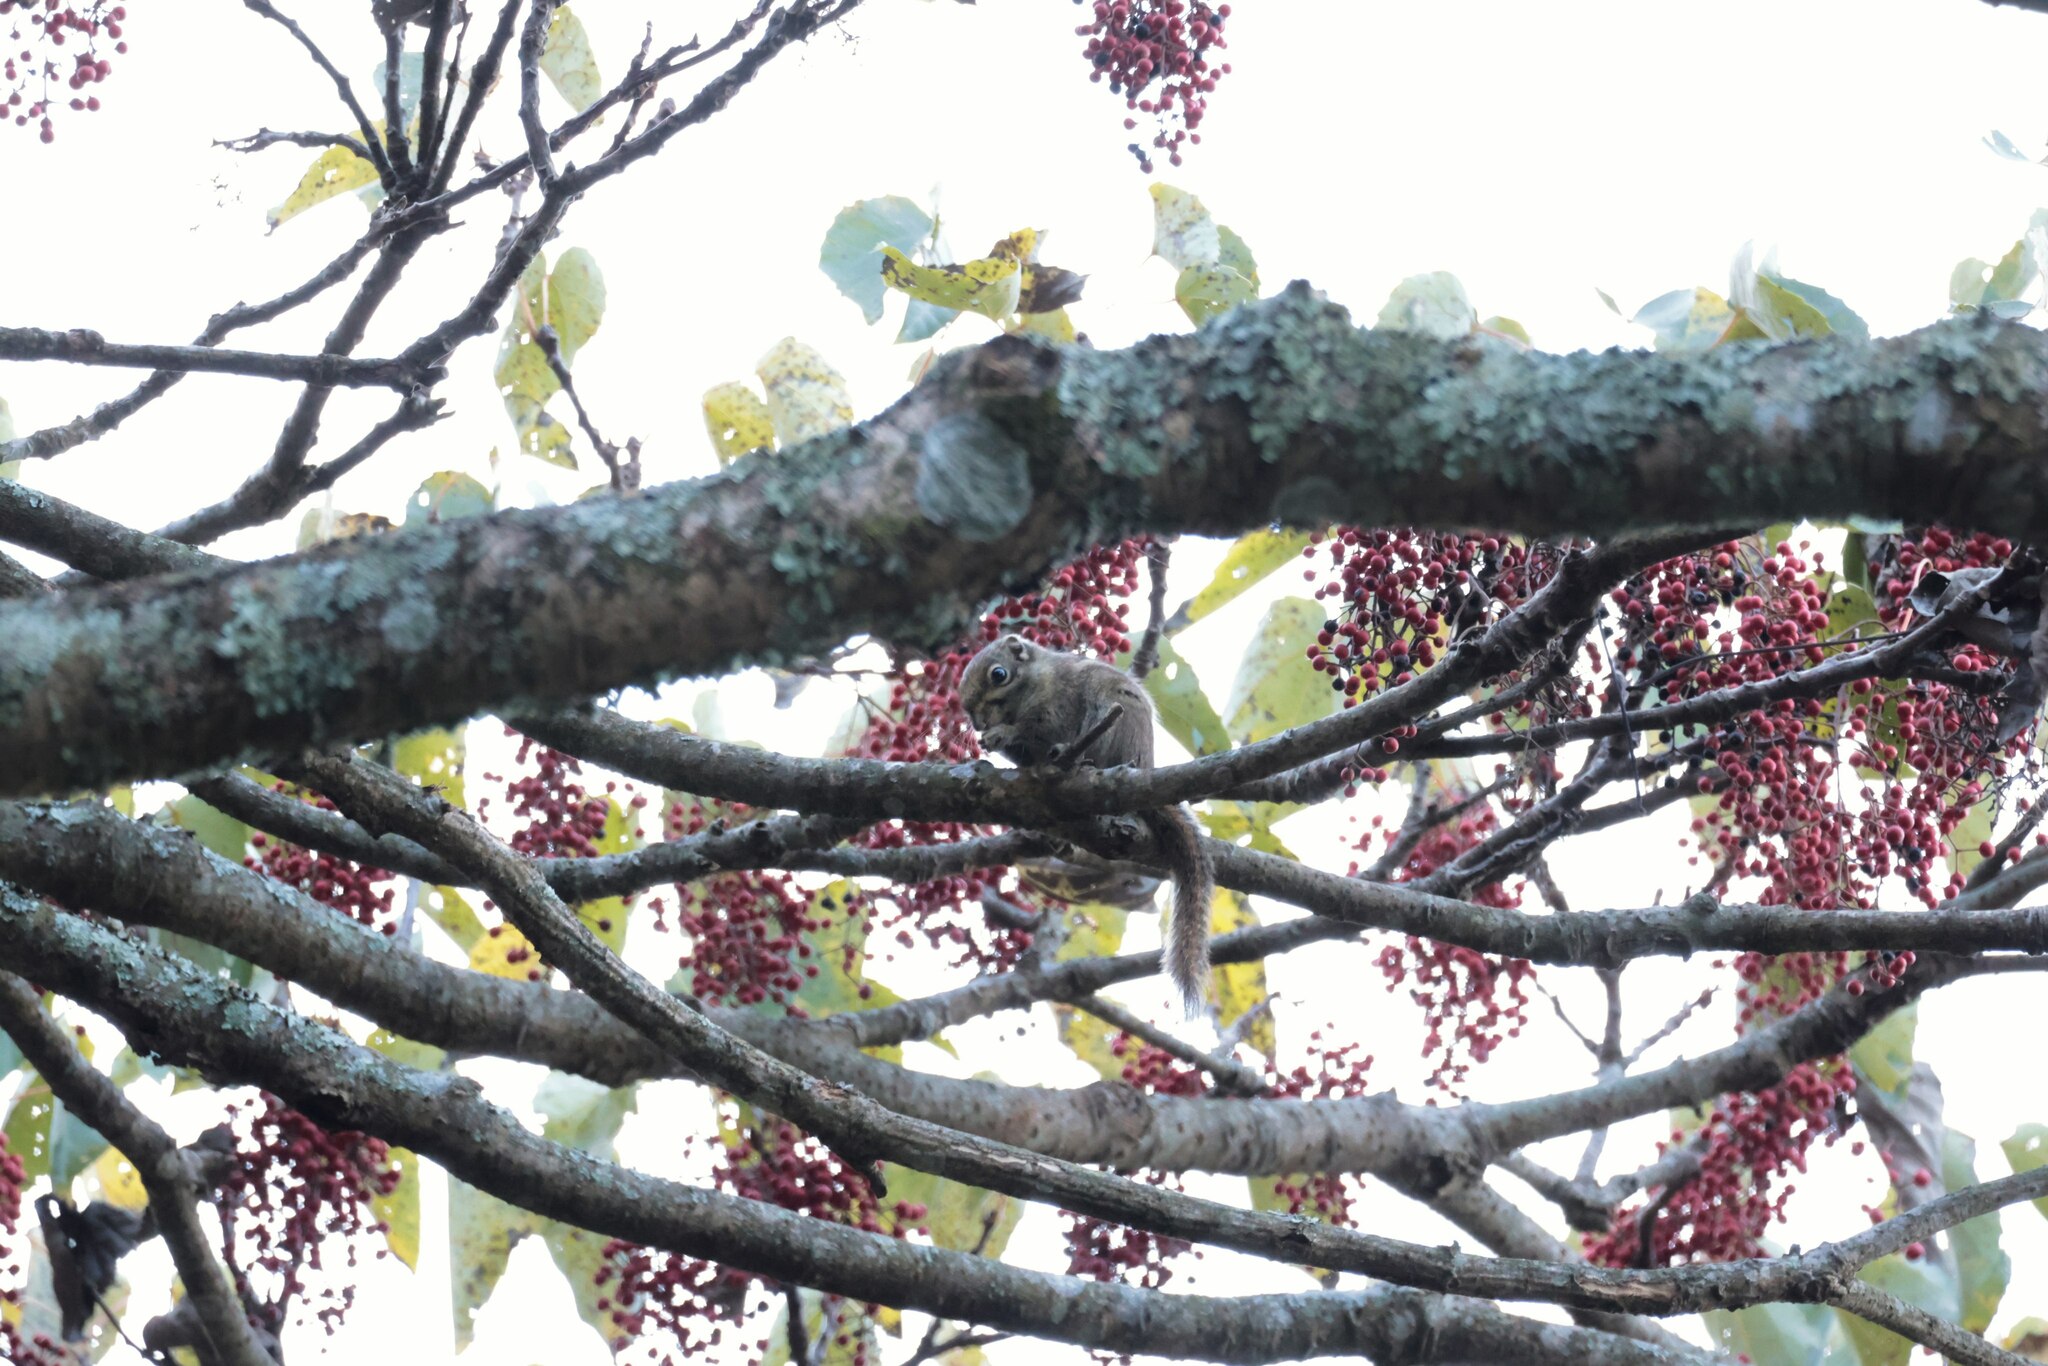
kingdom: Animalia
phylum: Chordata
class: Mammalia
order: Rodentia
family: Sciuridae
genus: Tamiops
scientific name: Tamiops maritimus
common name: Maritime striped squirrel
